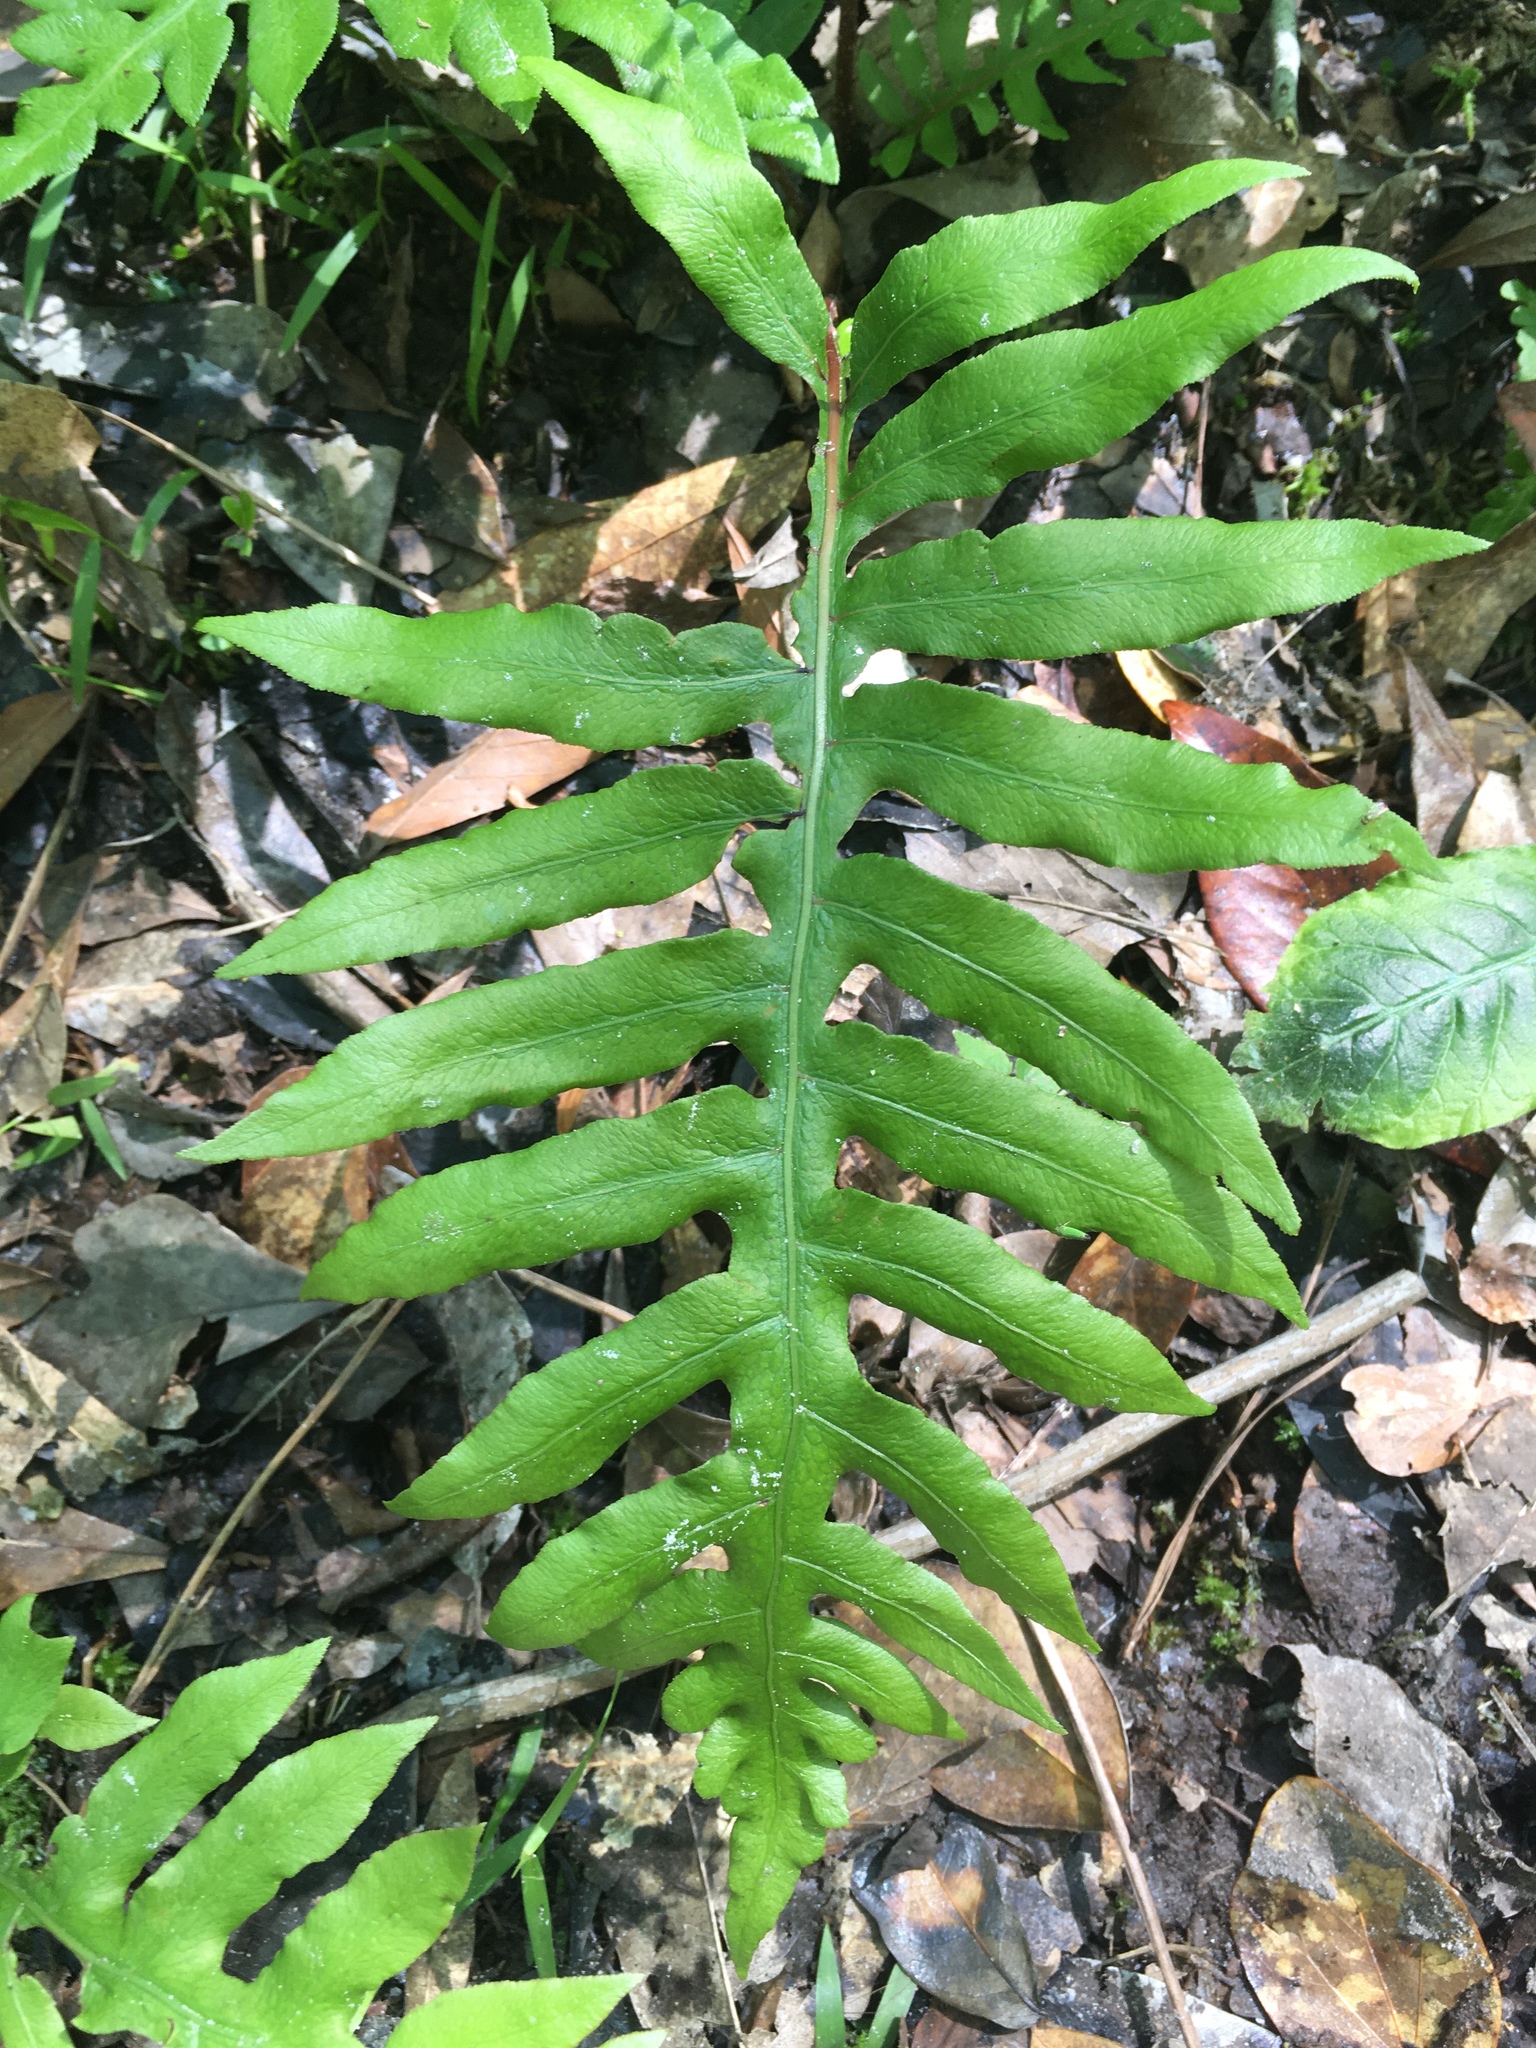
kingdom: Plantae
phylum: Tracheophyta
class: Polypodiopsida
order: Polypodiales
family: Blechnaceae
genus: Lorinseria
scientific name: Lorinseria areolata
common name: Dwarf chain fern
